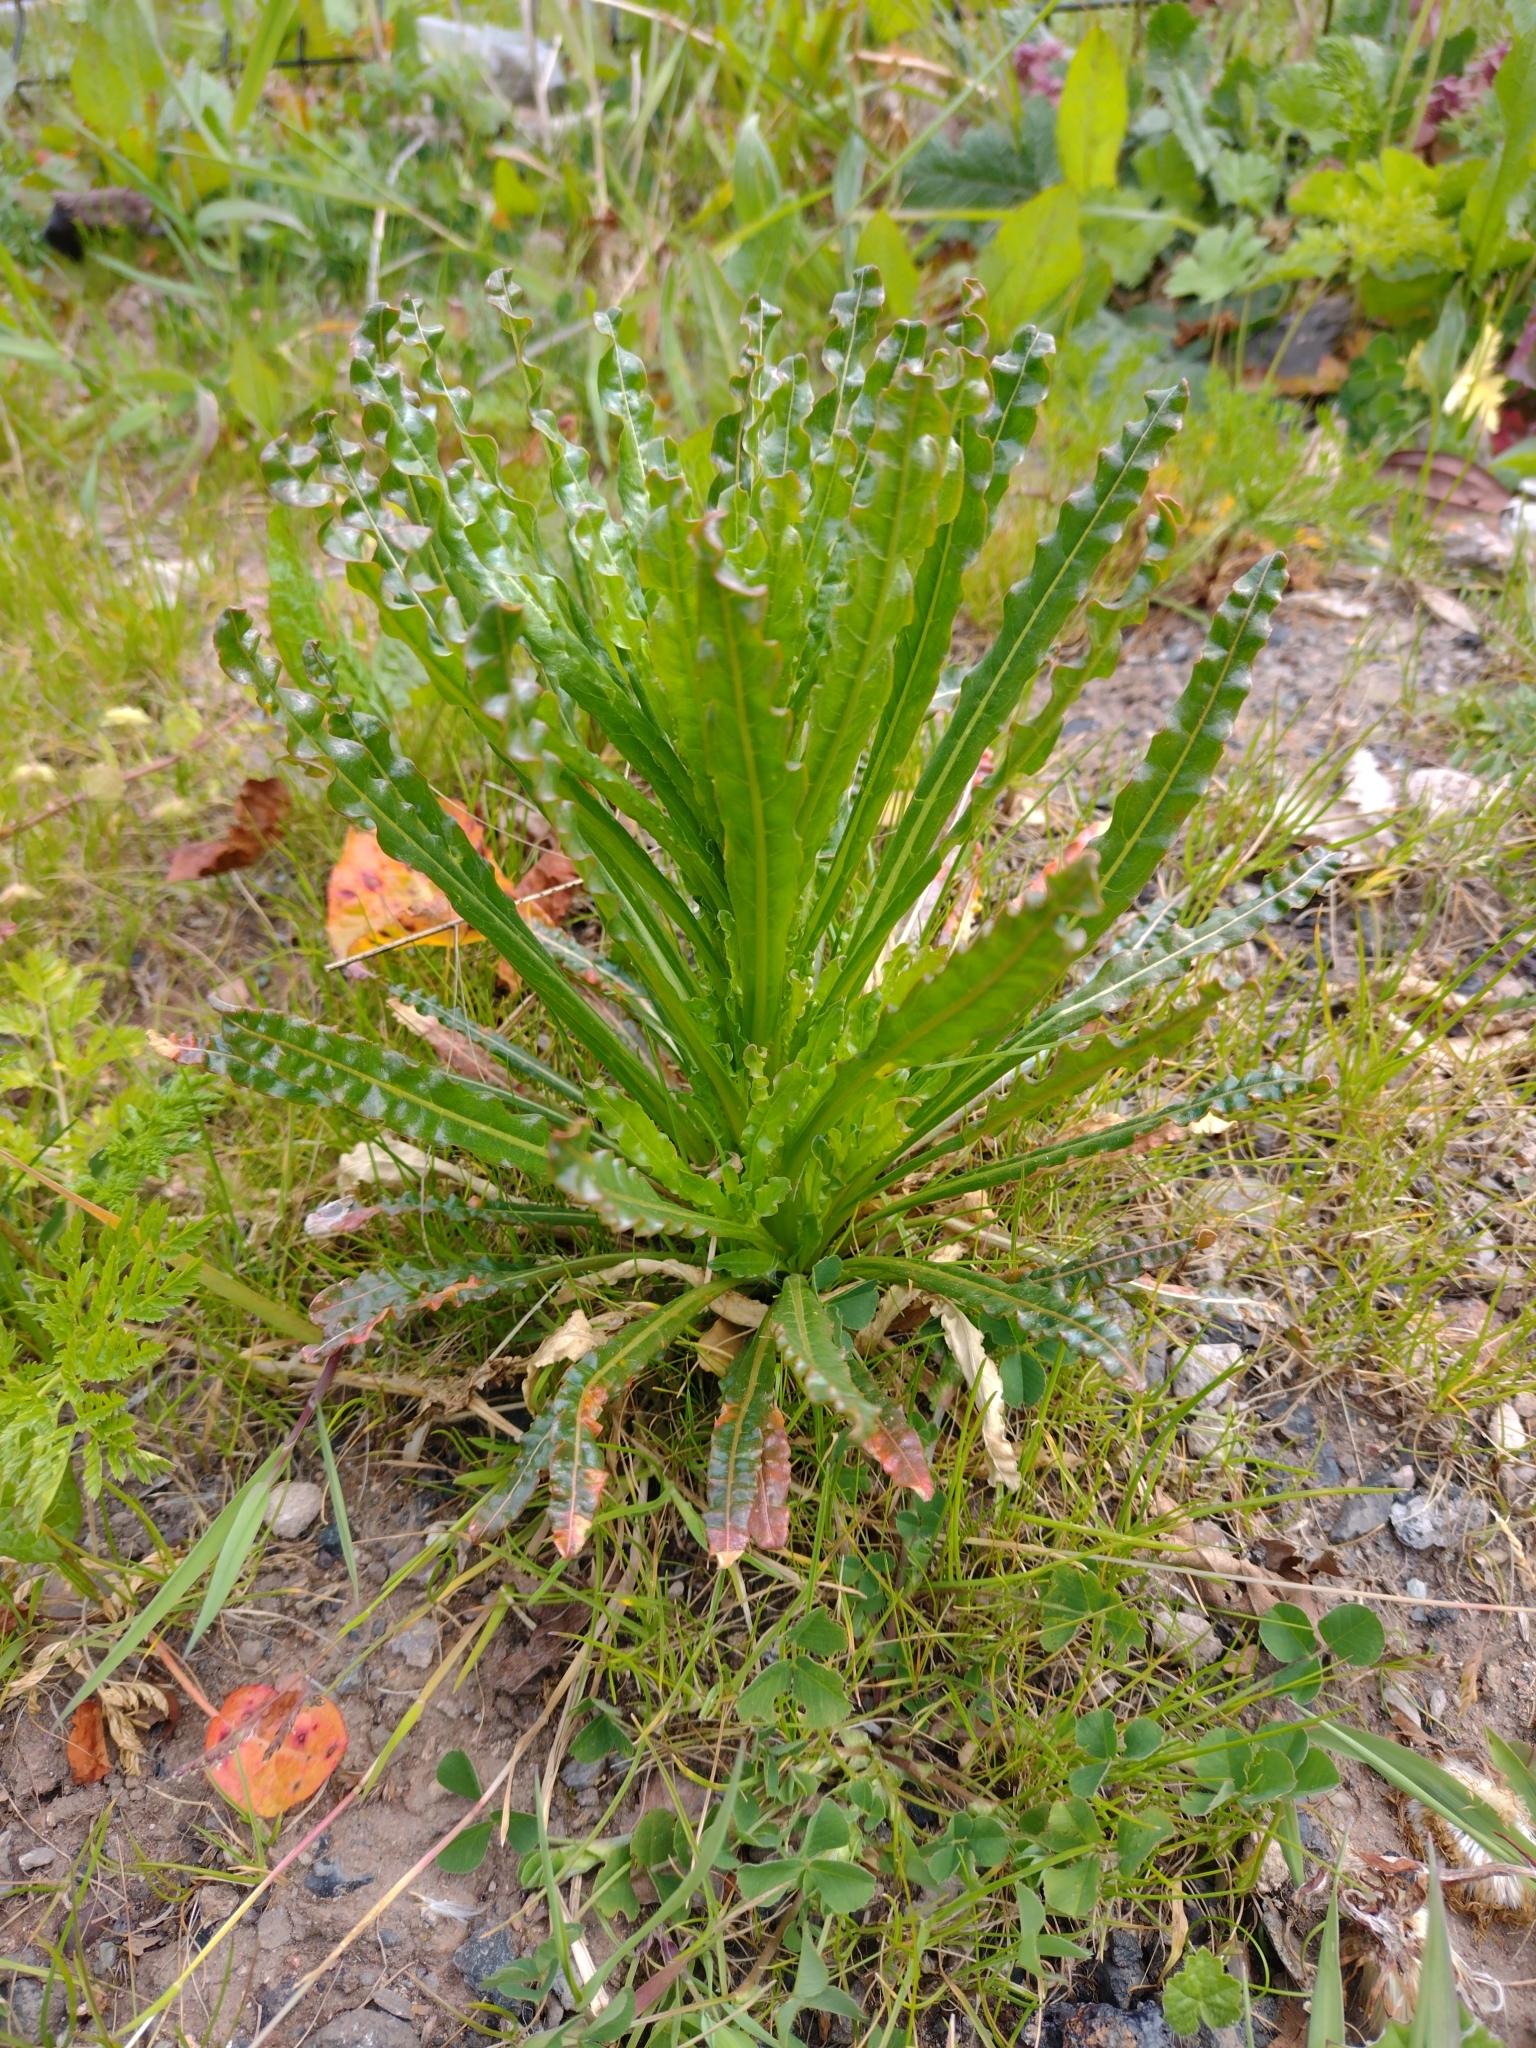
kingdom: Plantae
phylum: Tracheophyta
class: Magnoliopsida
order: Brassicales
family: Resedaceae
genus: Reseda
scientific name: Reseda luteola
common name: Weld
